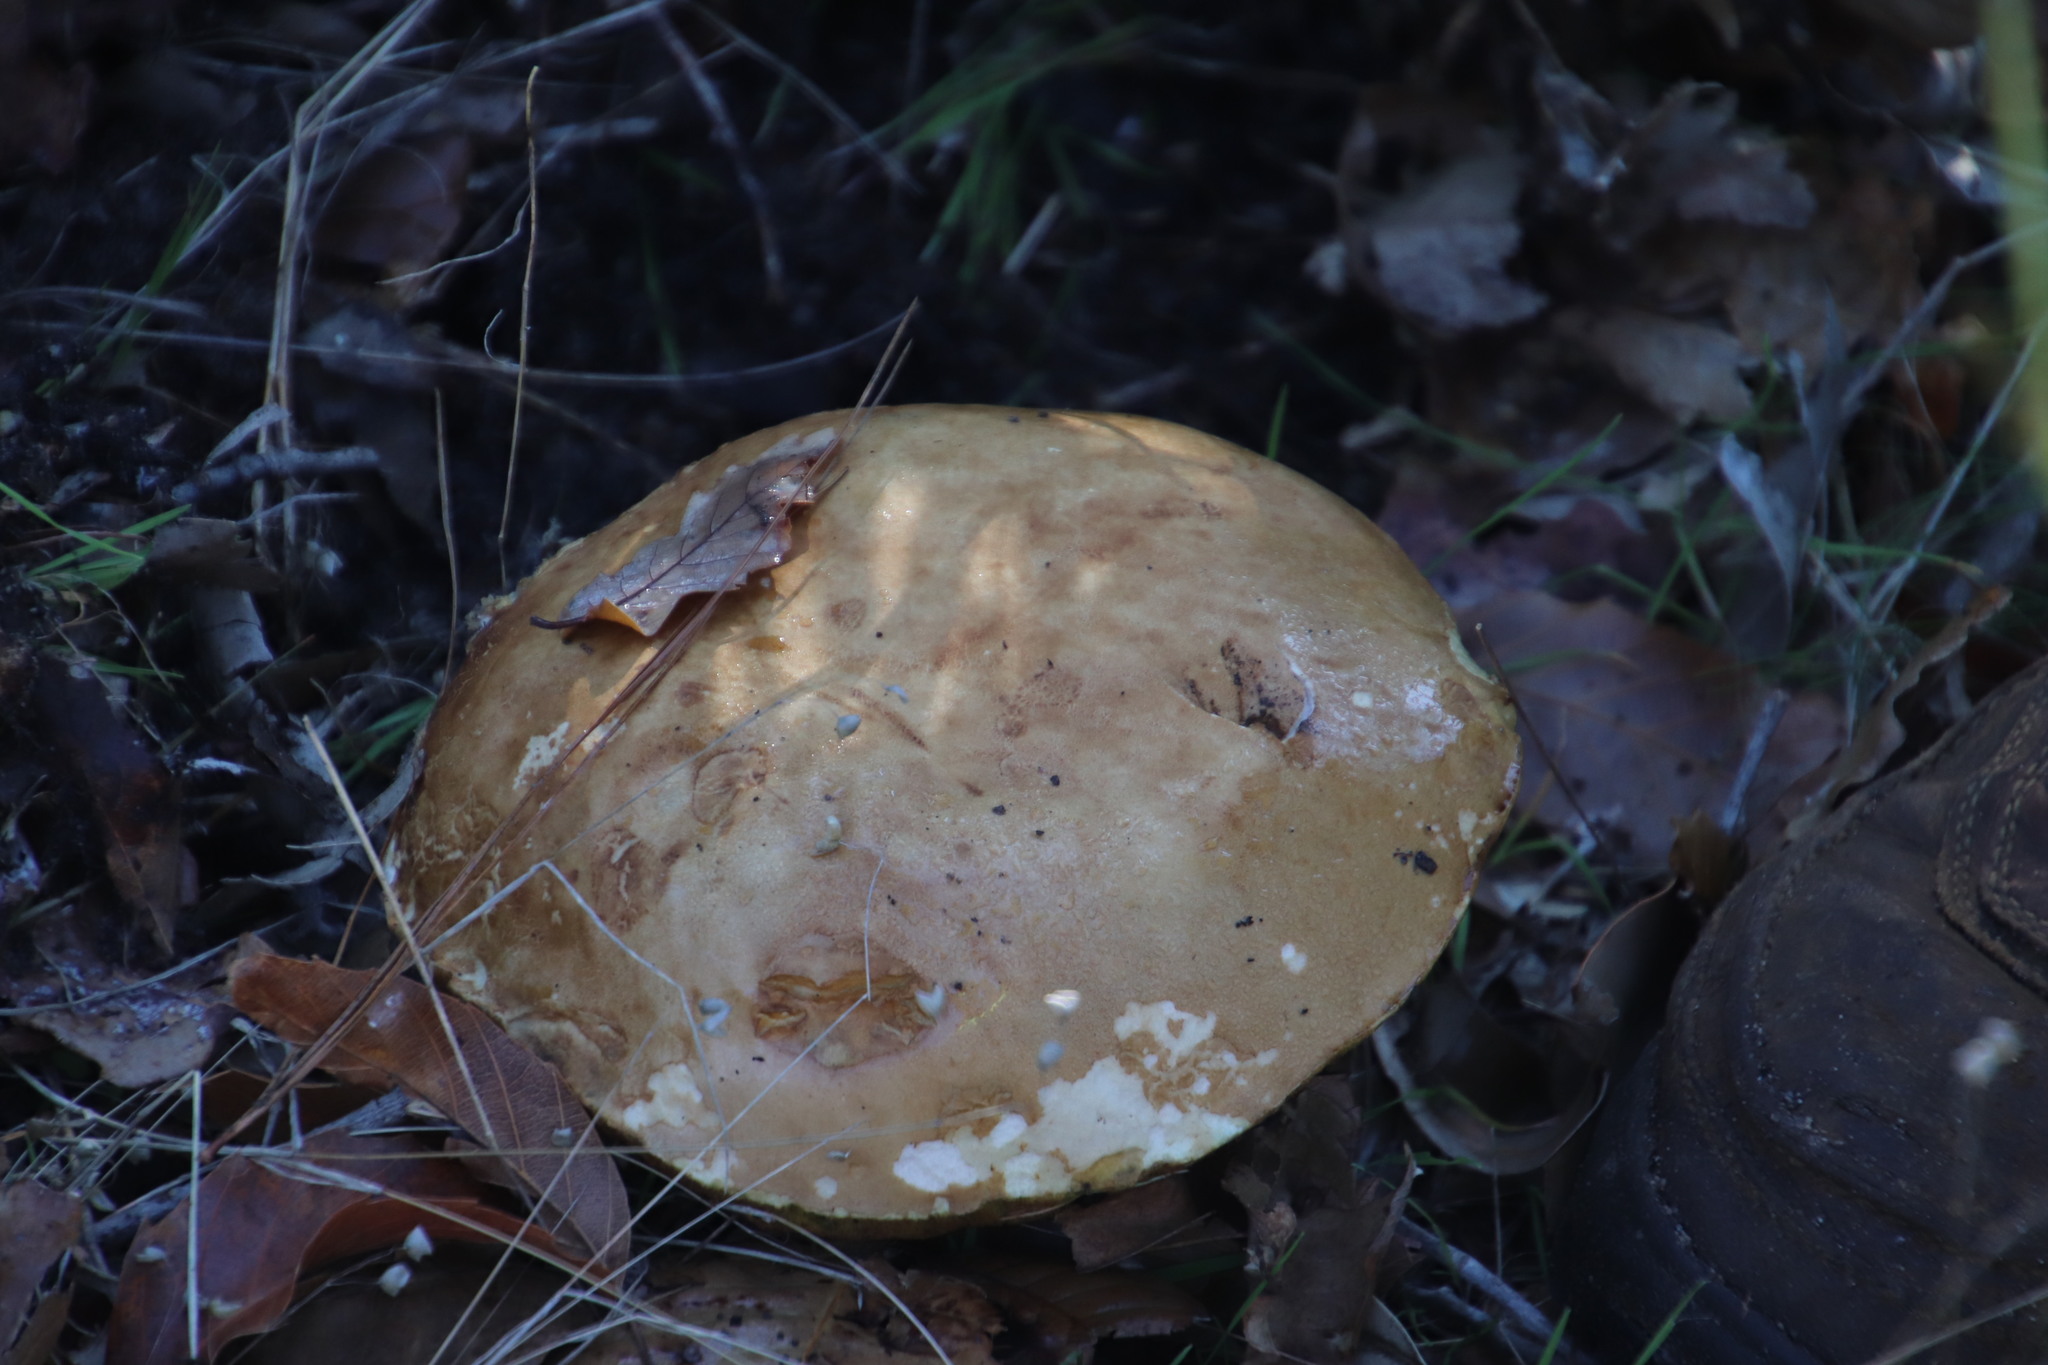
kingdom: Fungi
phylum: Basidiomycota
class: Agaricomycetes
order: Boletales
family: Boletaceae
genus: Boletus
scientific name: Boletus edulis
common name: Cep
